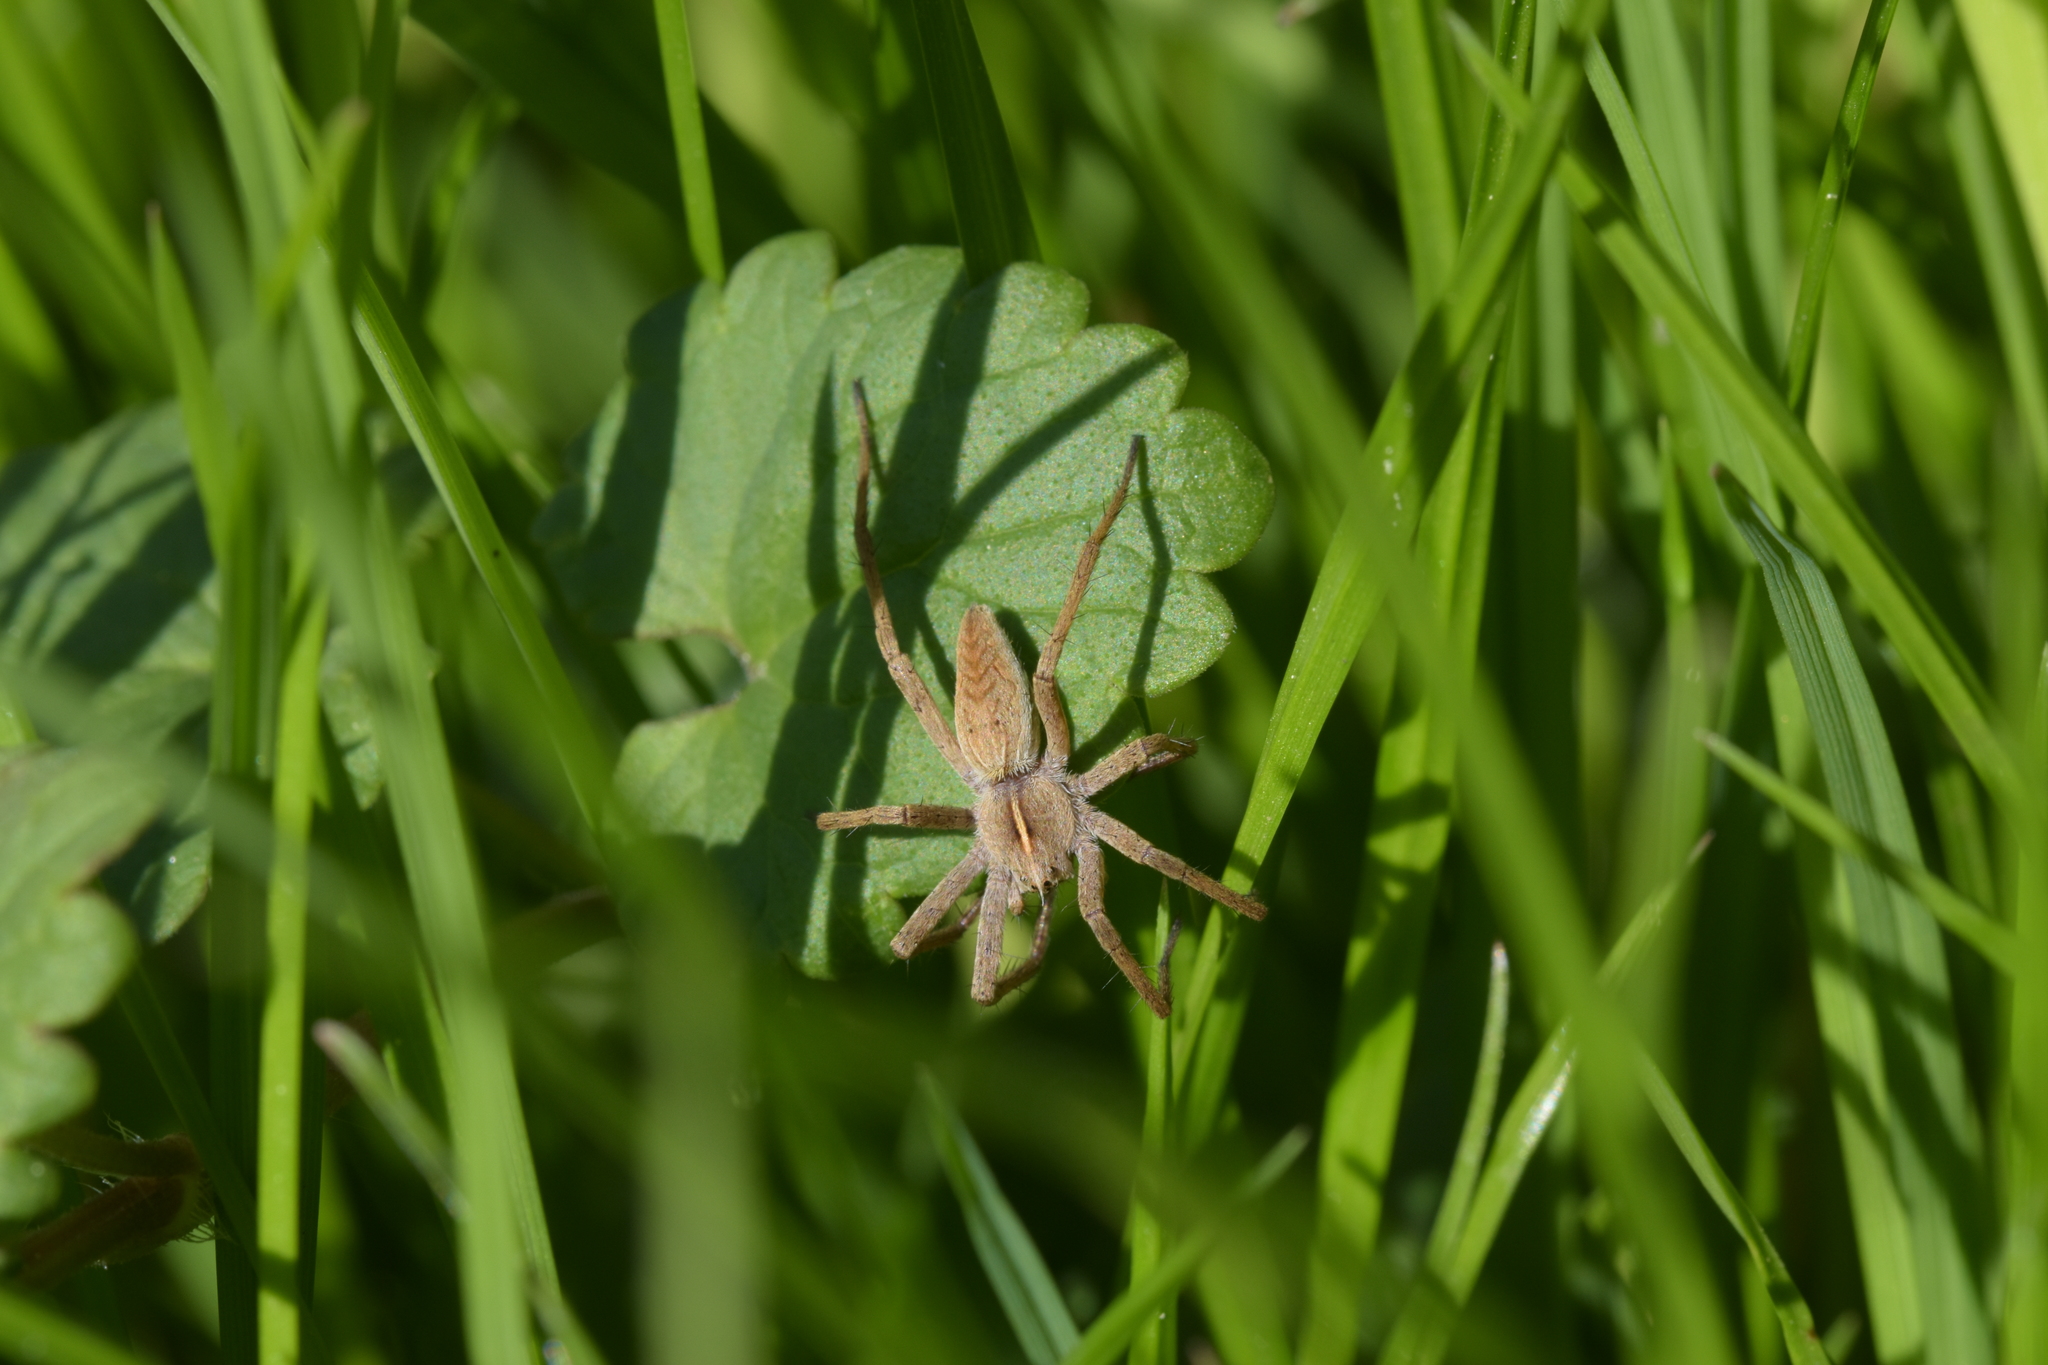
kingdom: Animalia
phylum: Arthropoda
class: Arachnida
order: Araneae
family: Pisauridae
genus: Pisaura
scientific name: Pisaura mirabilis
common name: Tent spider
